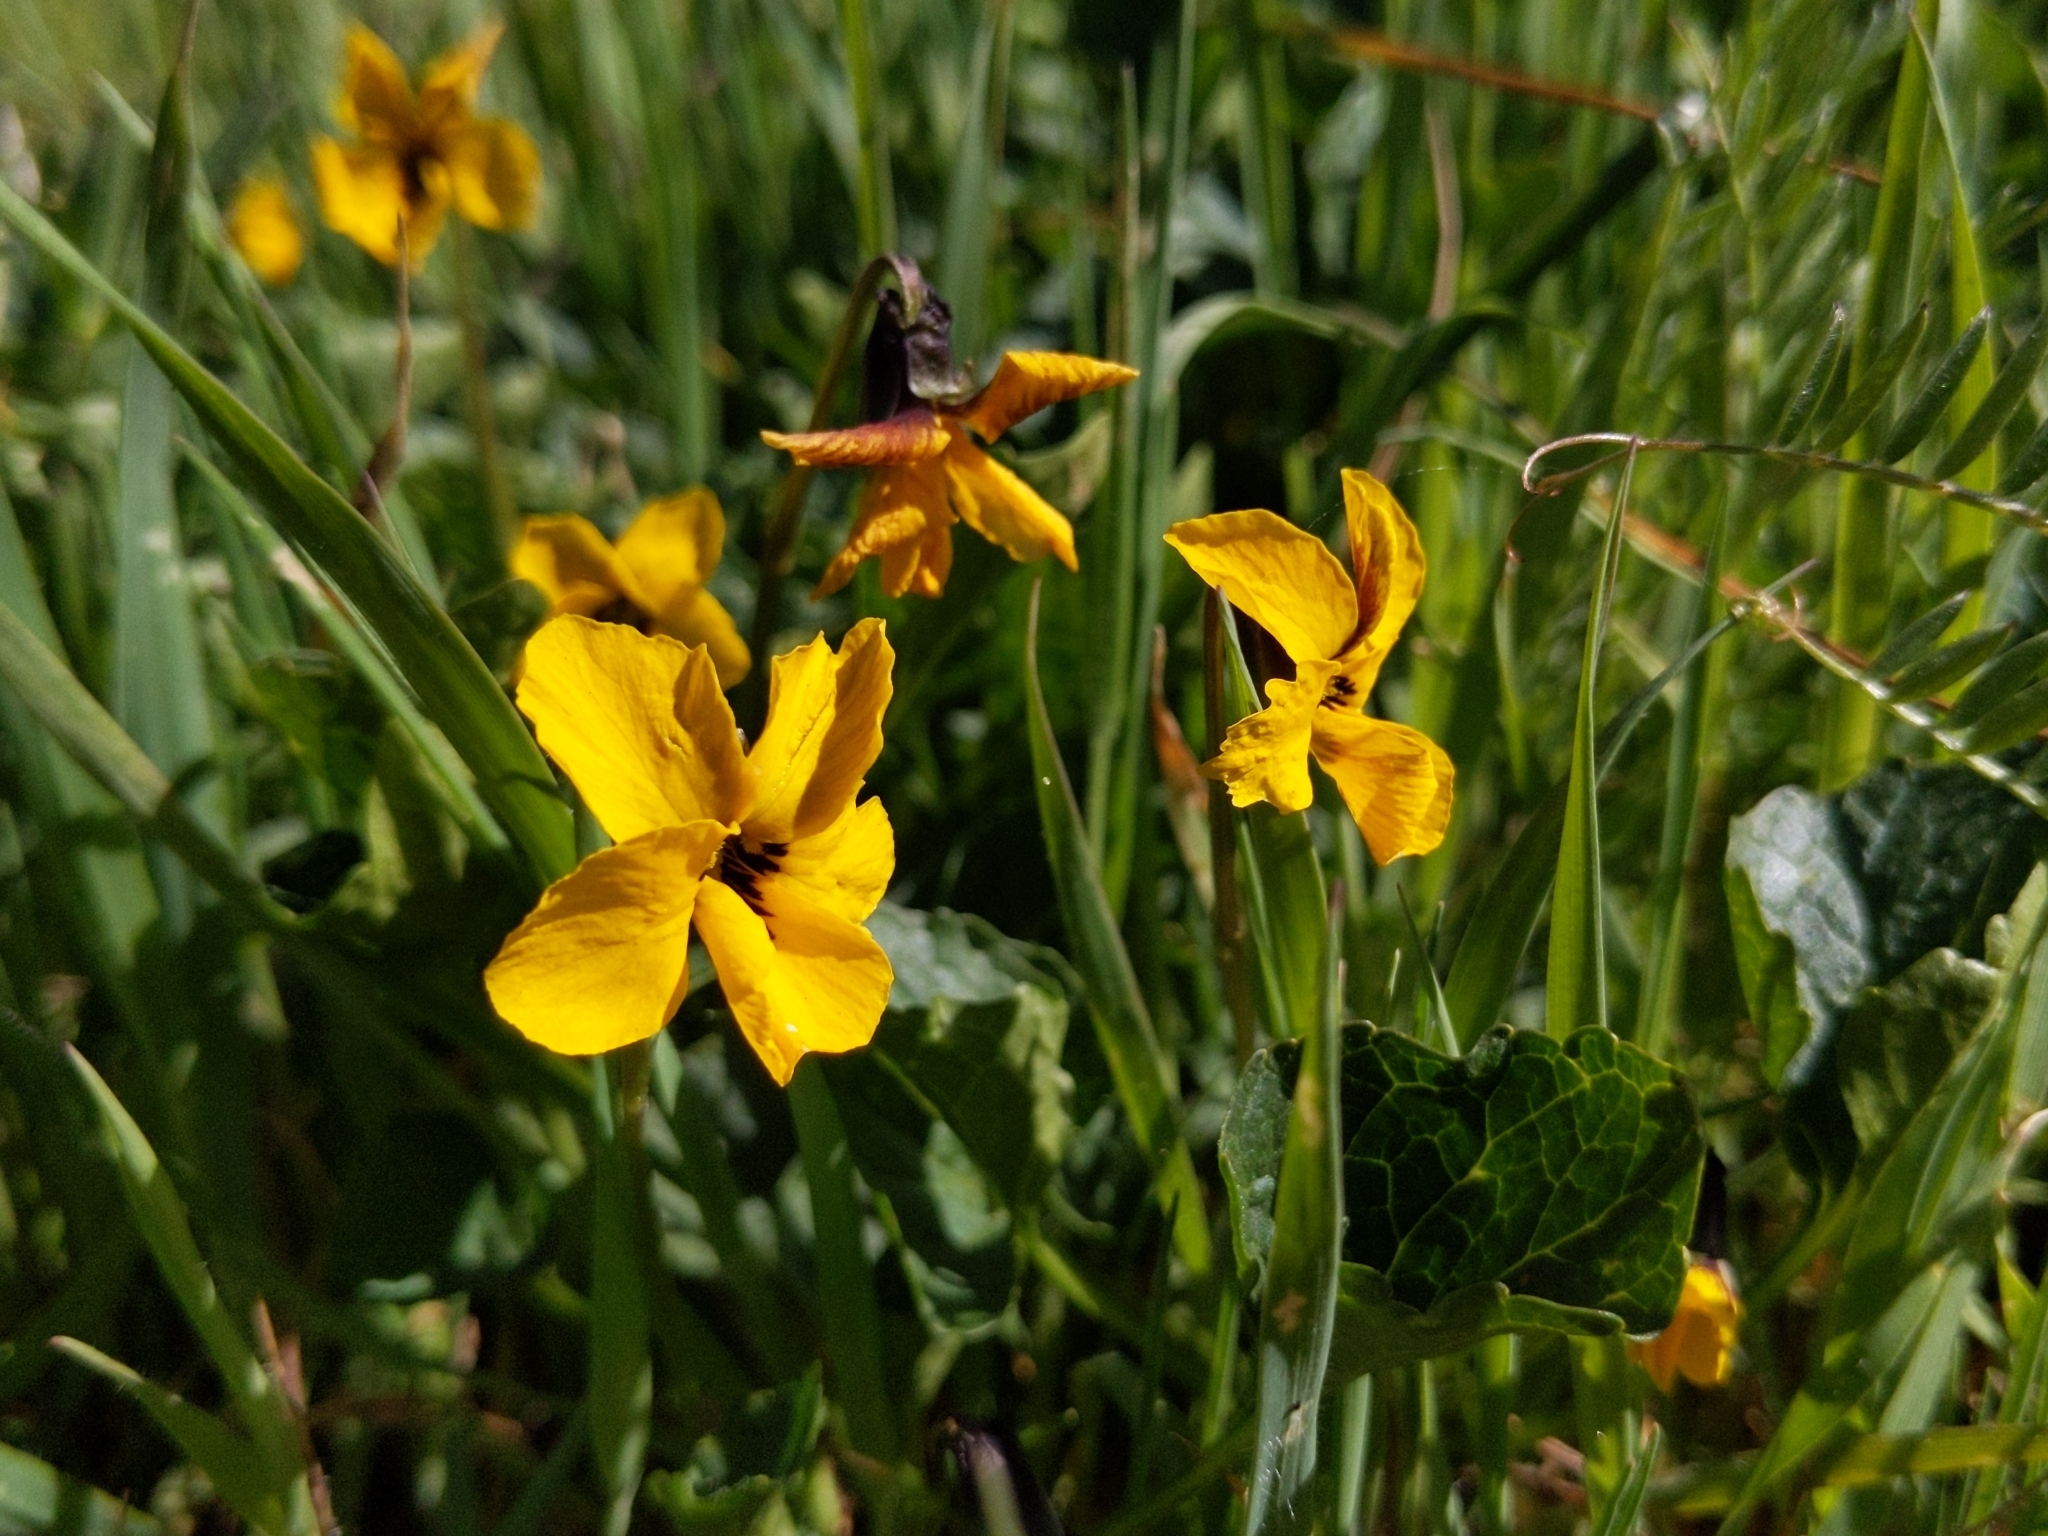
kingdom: Plantae
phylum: Tracheophyta
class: Magnoliopsida
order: Malpighiales
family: Violaceae
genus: Viola
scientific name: Viola pedunculata
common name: California golden violet
